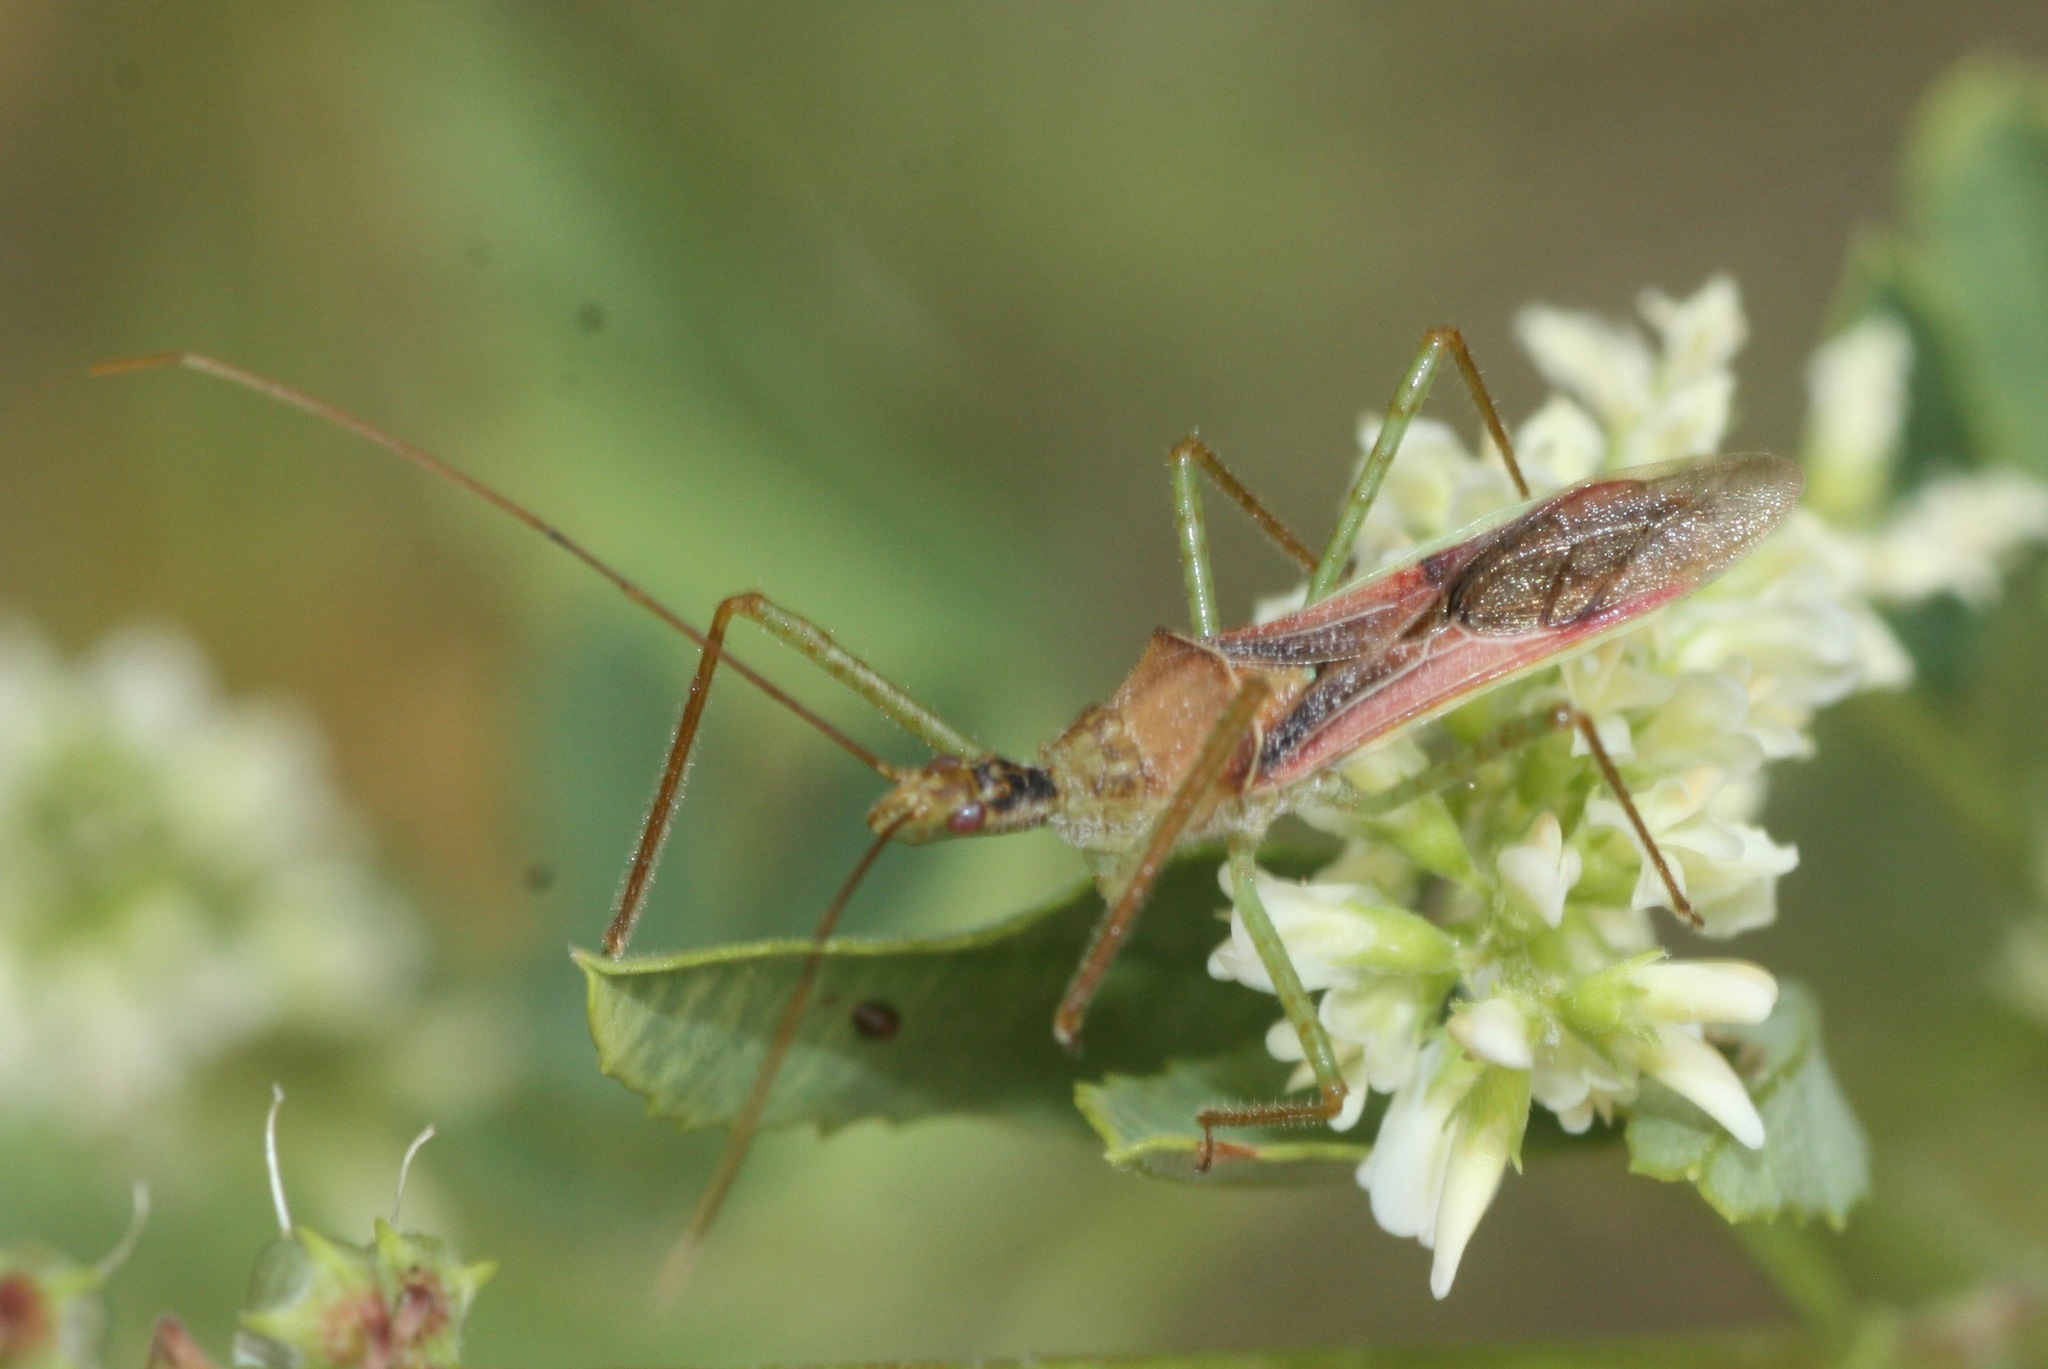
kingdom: Animalia
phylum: Arthropoda
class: Insecta
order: Hemiptera
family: Reduviidae
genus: Zelus
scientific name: Zelus renardii
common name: Assassin bug
